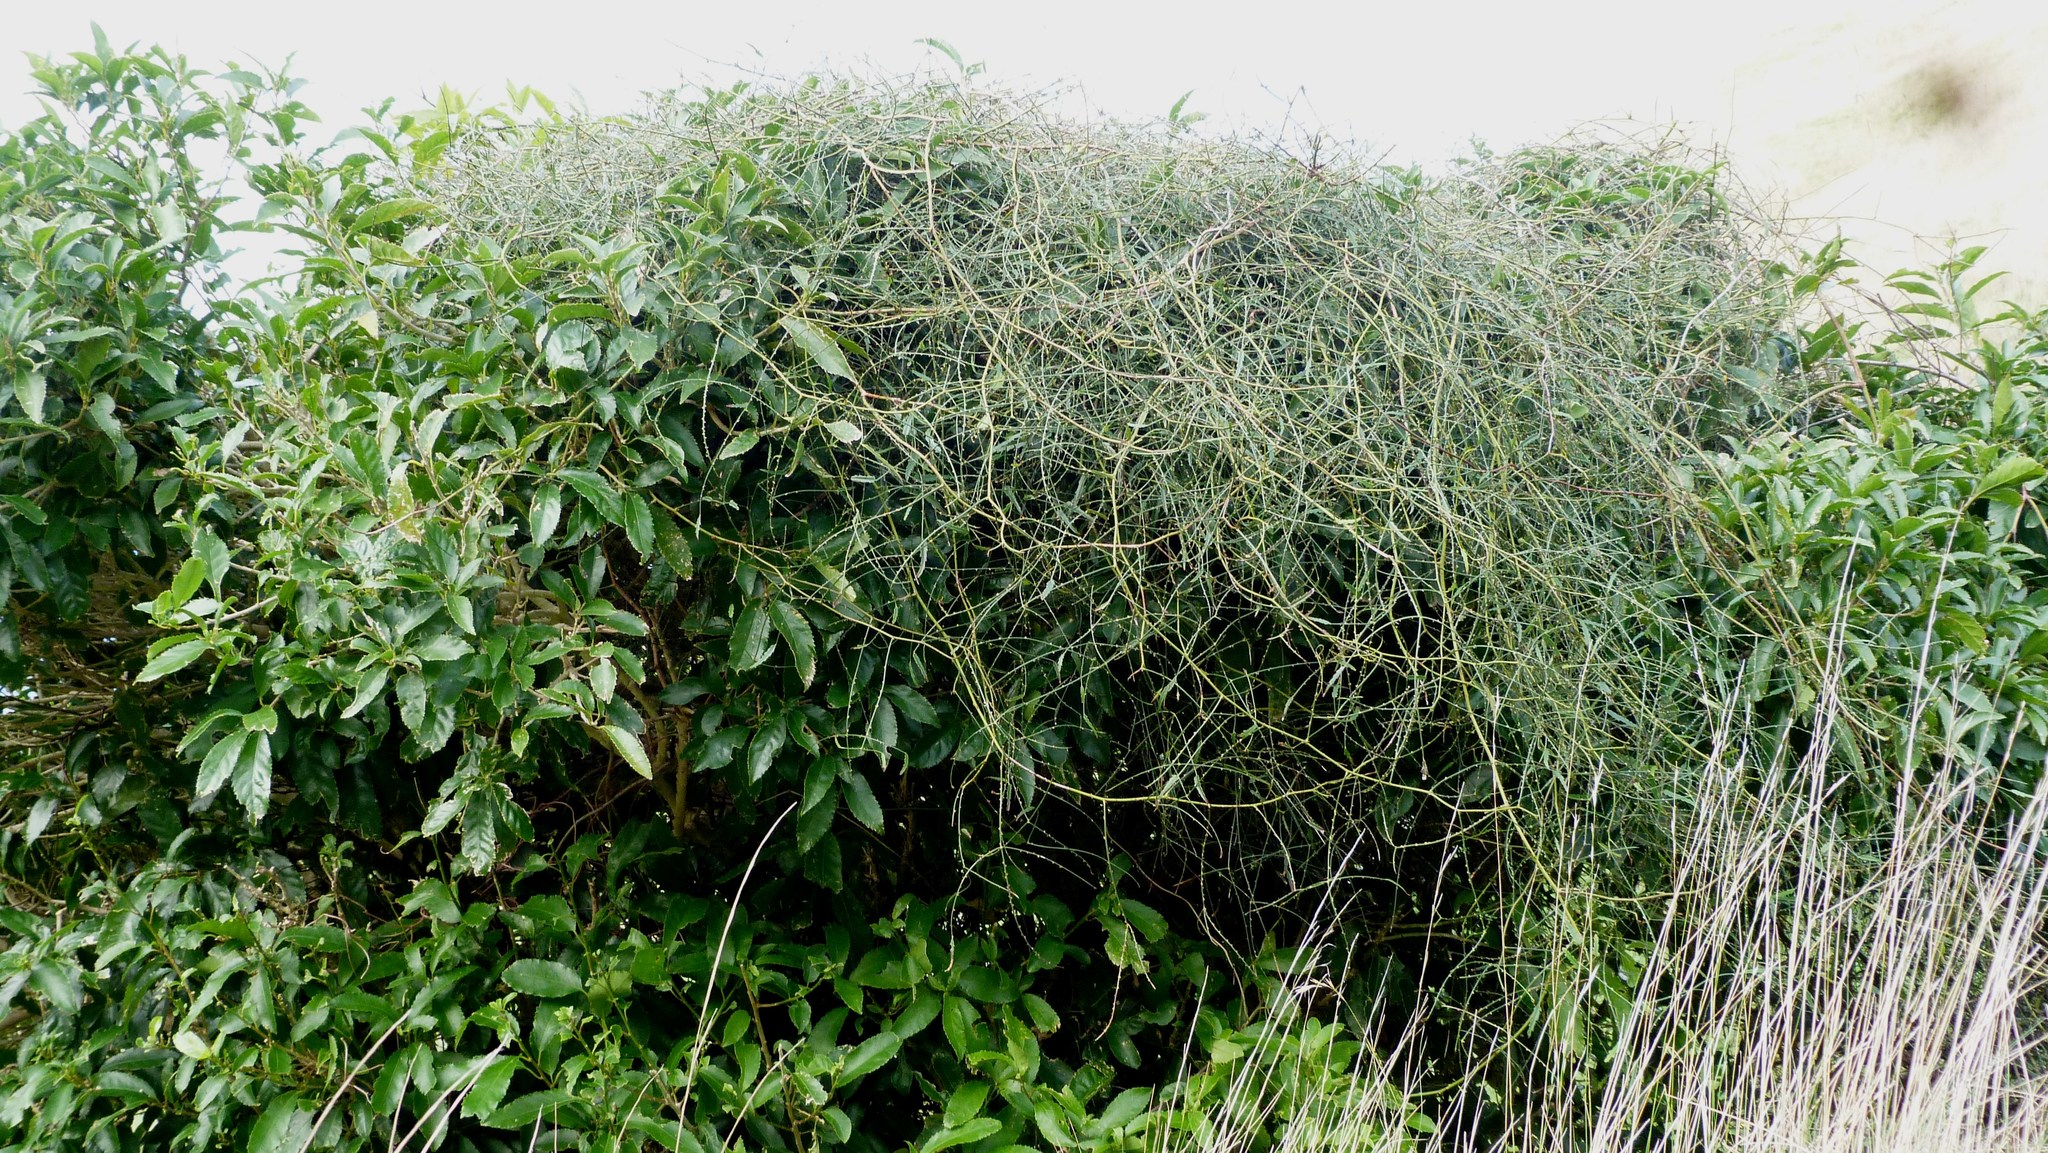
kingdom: Plantae
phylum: Tracheophyta
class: Magnoliopsida
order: Rosales
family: Rosaceae
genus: Rubus
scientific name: Rubus squarrosus
